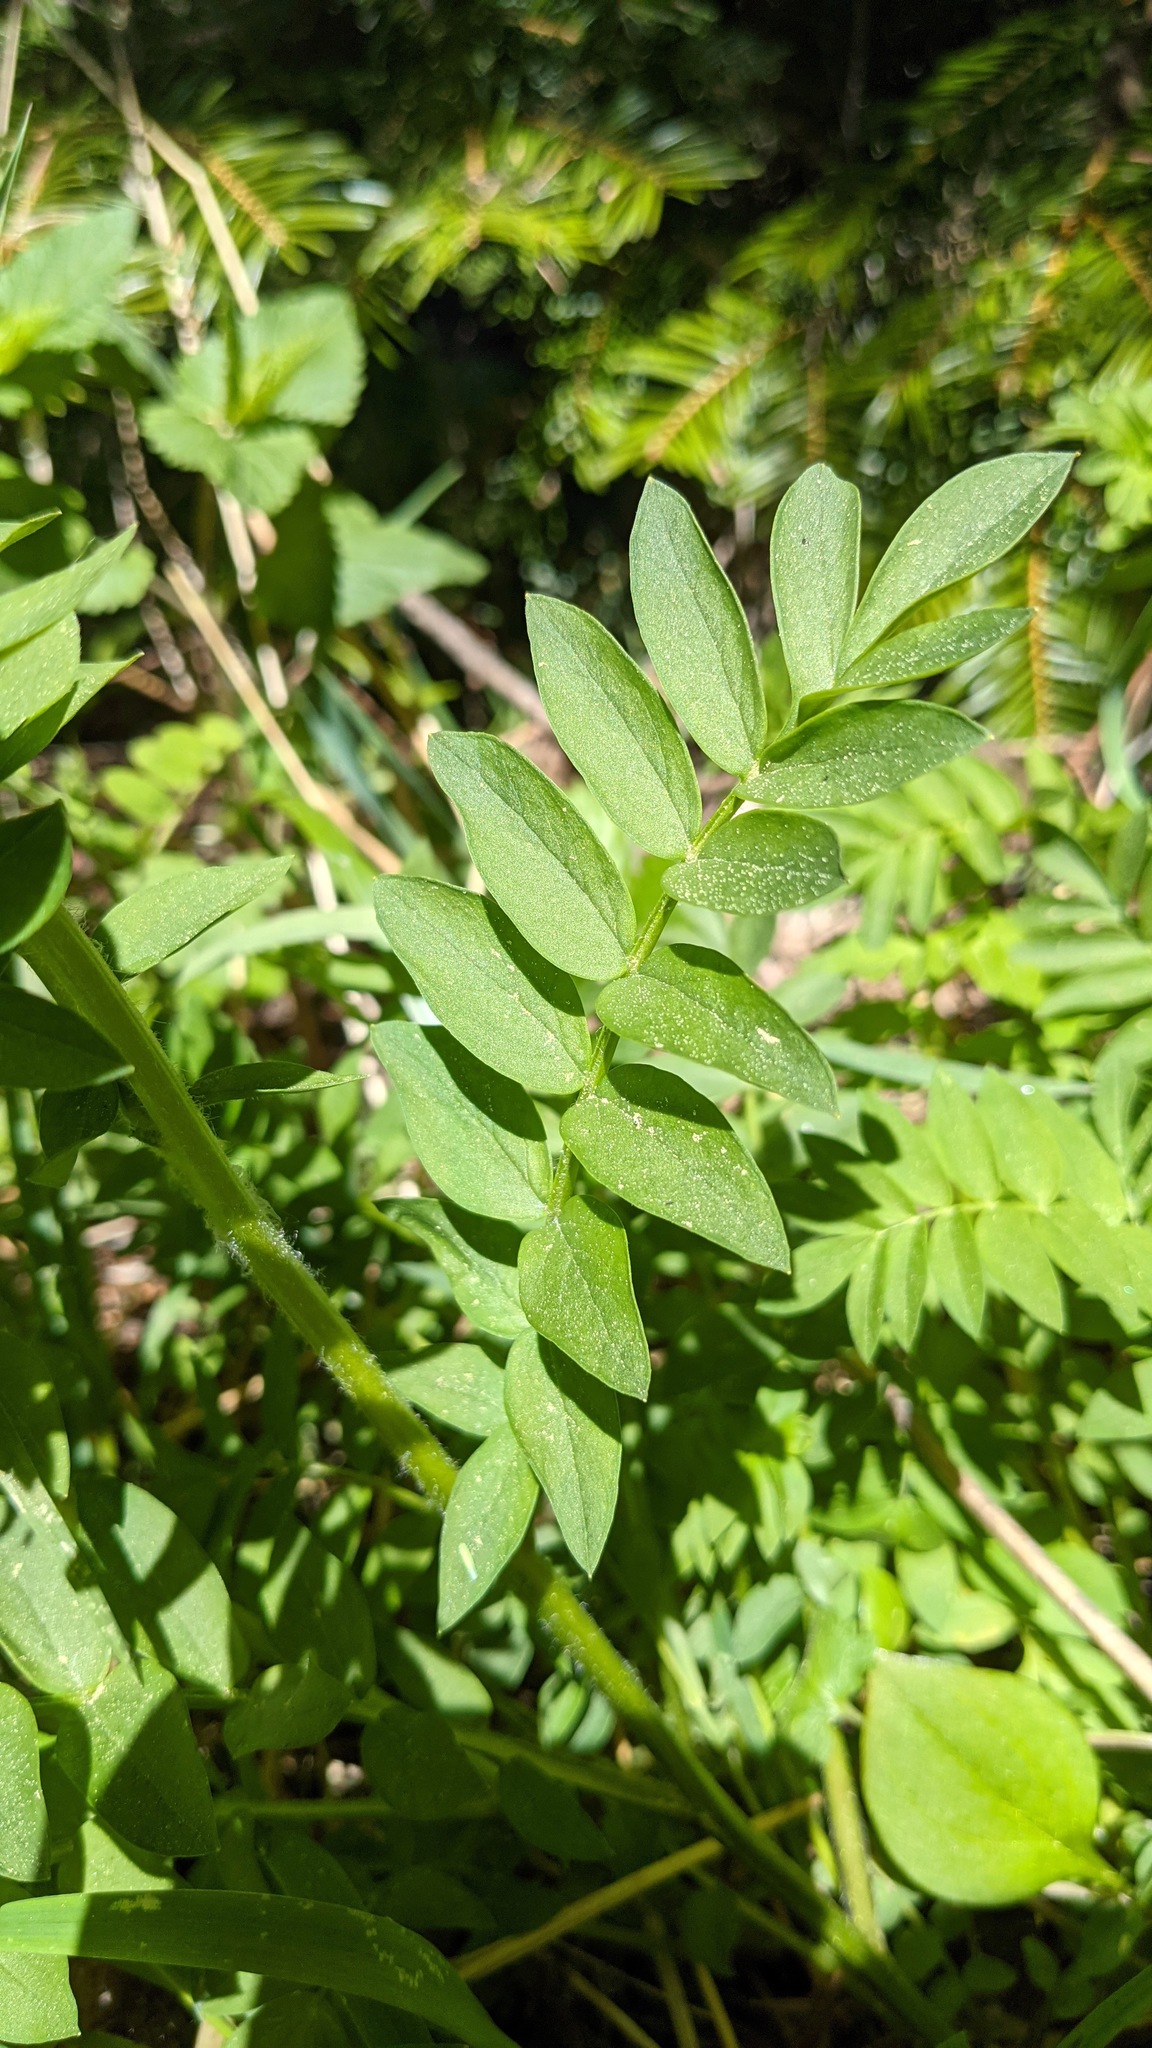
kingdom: Plantae
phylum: Tracheophyta
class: Magnoliopsida
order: Ericales
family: Polemoniaceae
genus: Polemonium
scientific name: Polemonium carneum
